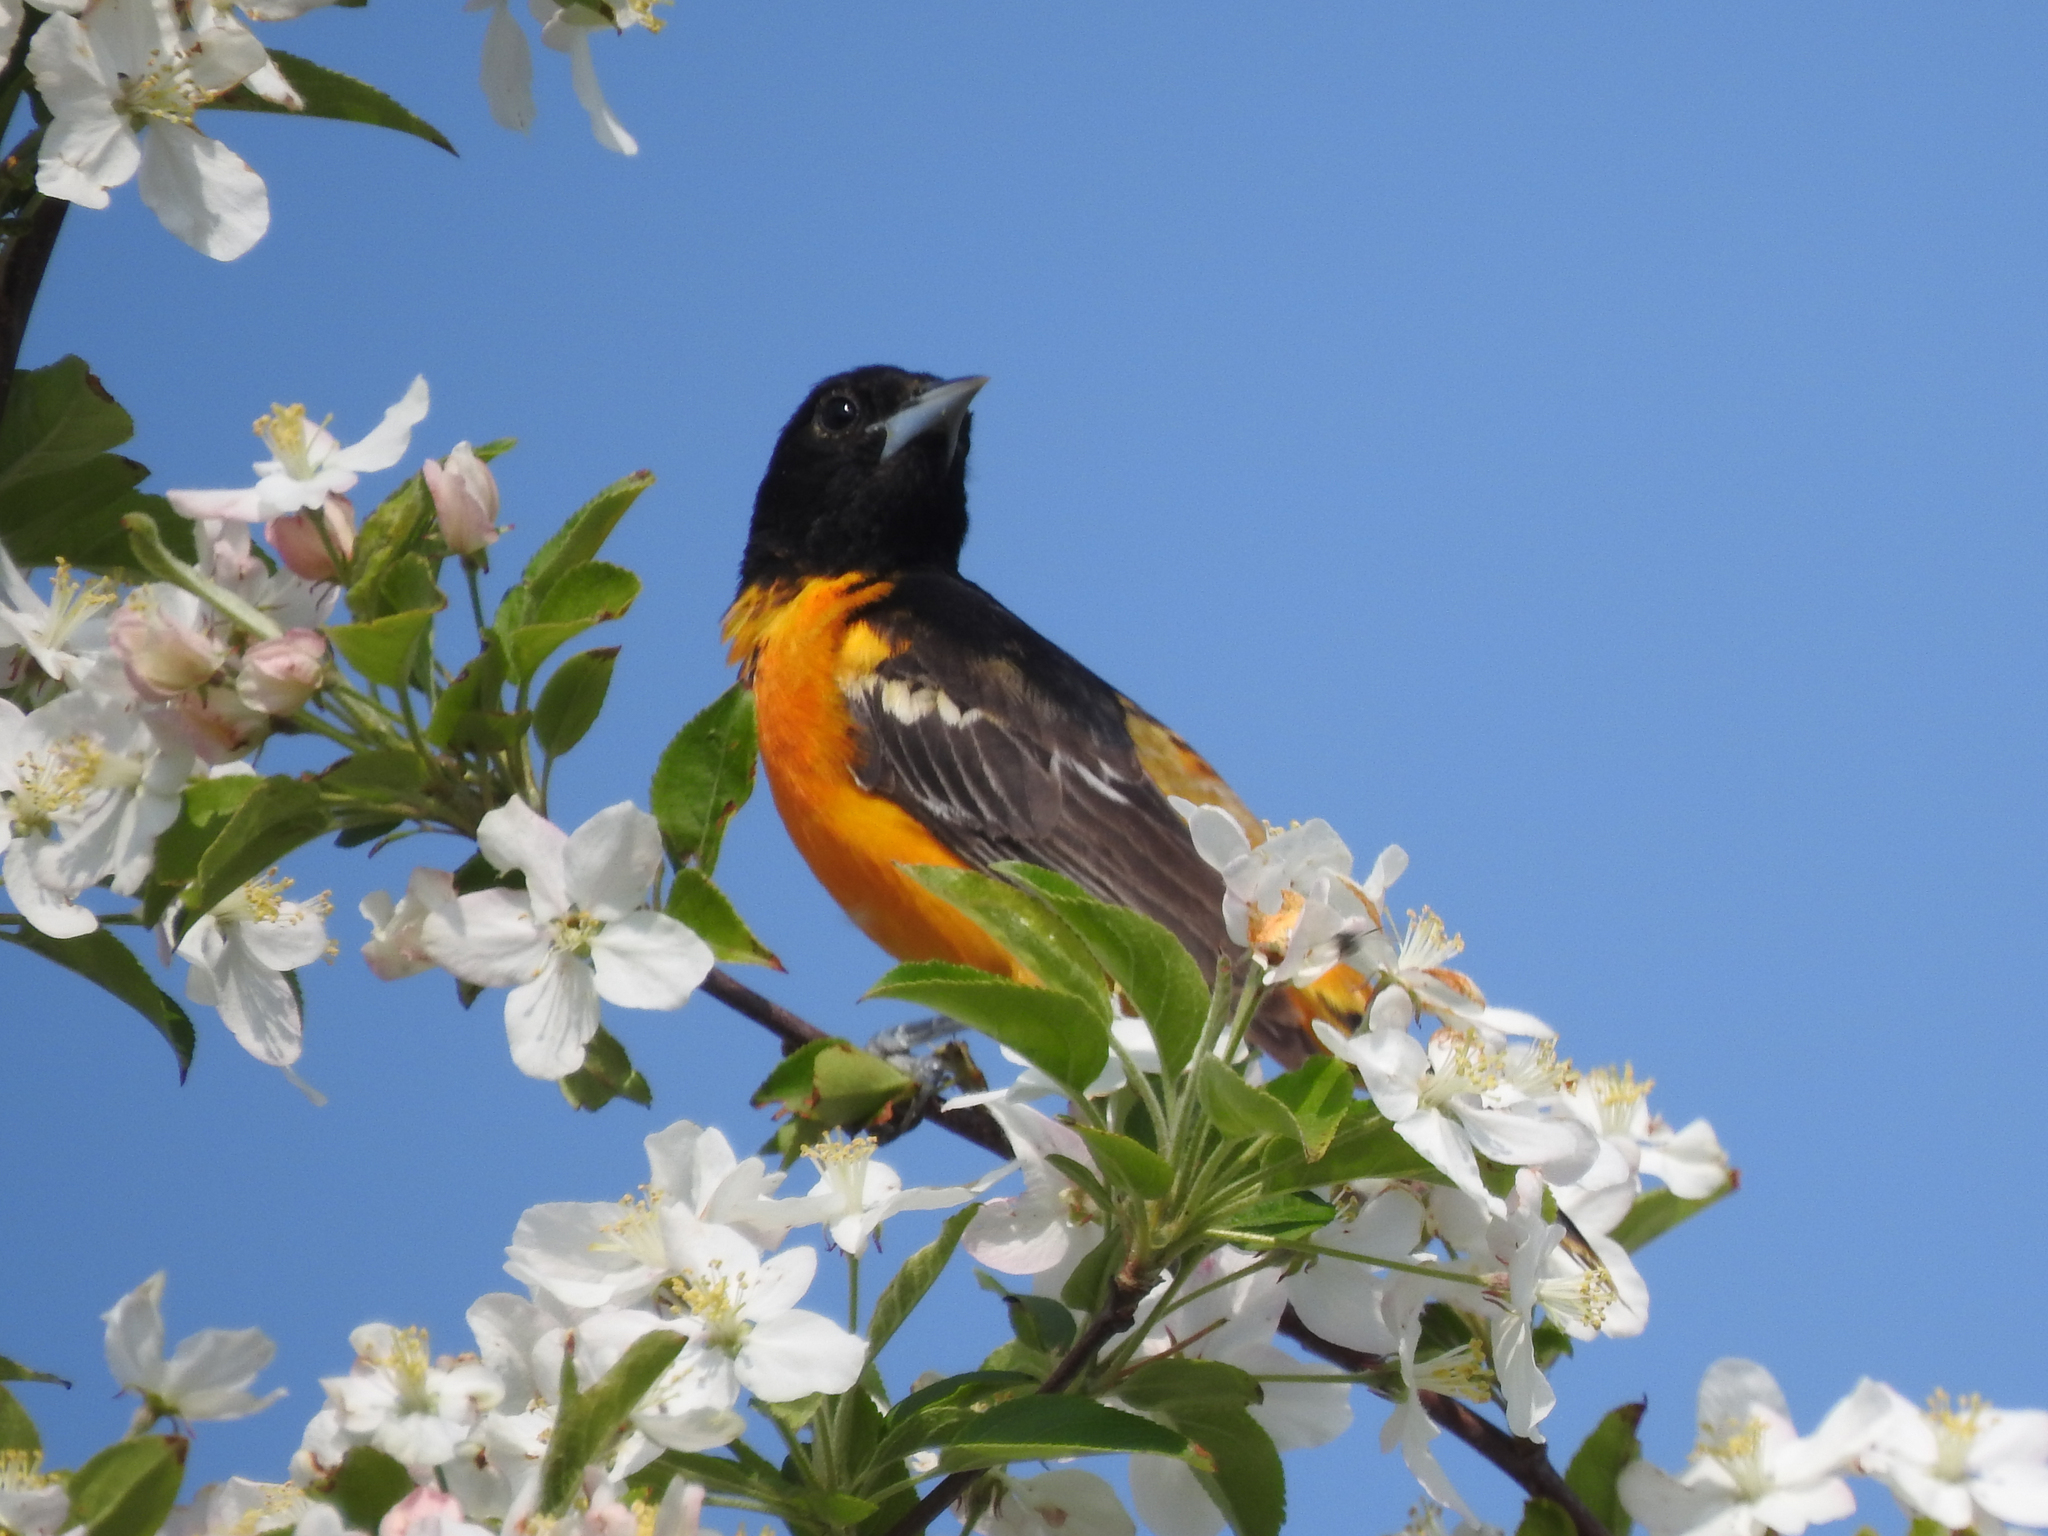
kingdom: Animalia
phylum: Chordata
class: Aves
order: Passeriformes
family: Icteridae
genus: Icterus
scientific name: Icterus galbula
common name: Baltimore oriole
